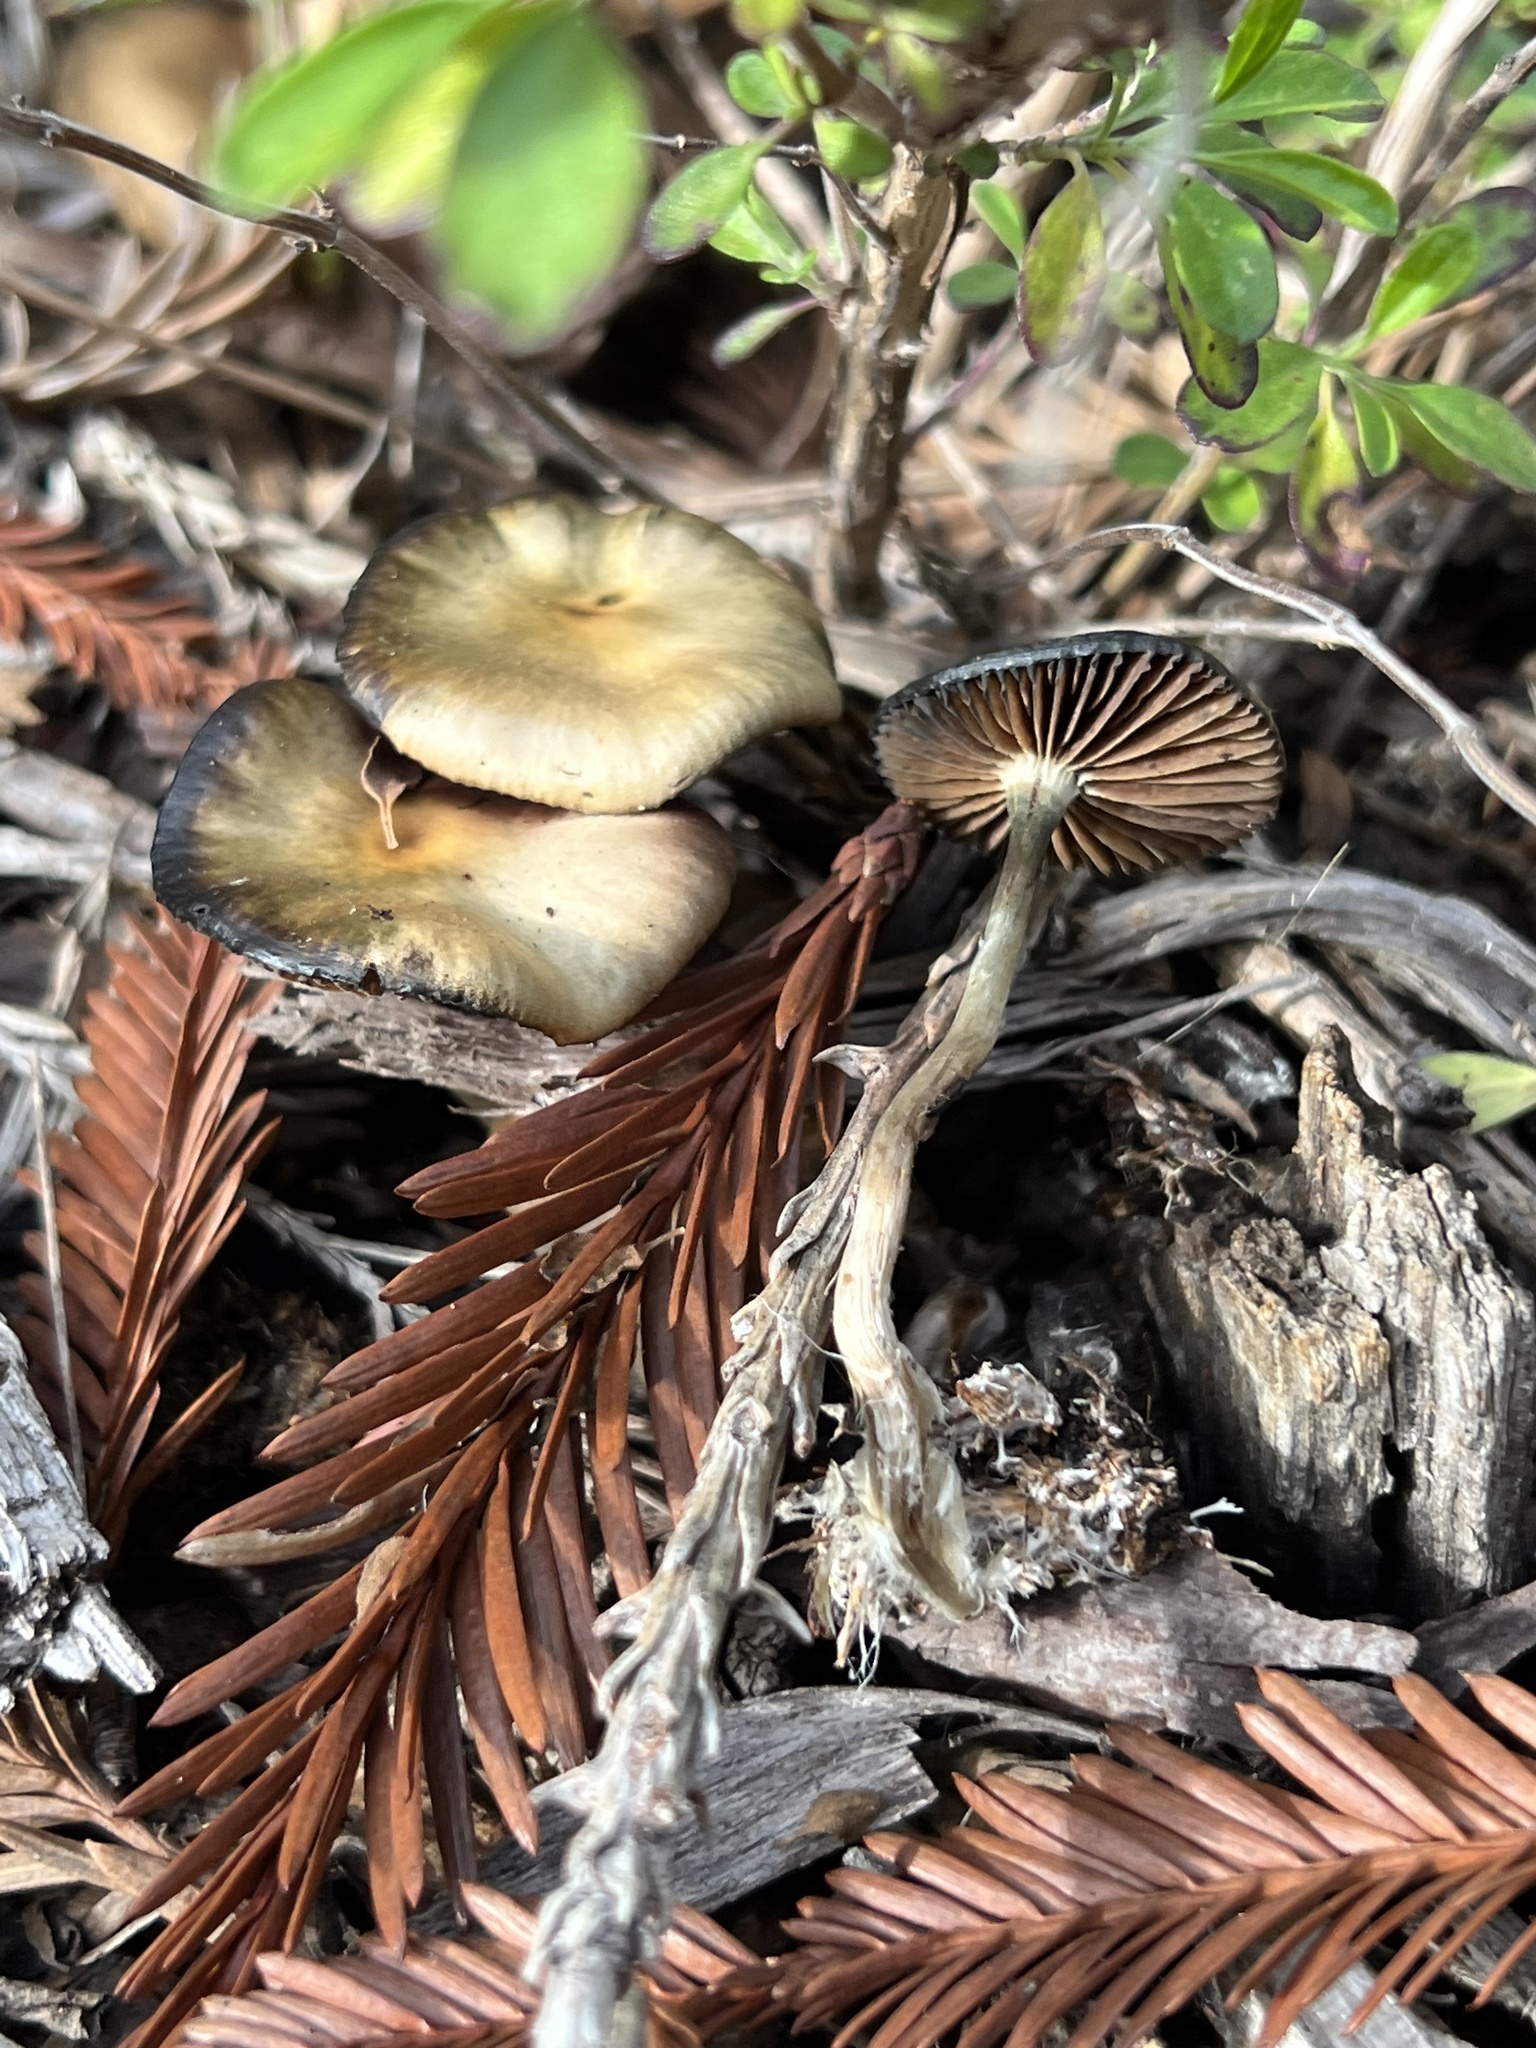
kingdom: Fungi
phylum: Basidiomycota
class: Agaricomycetes
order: Agaricales
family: Hymenogastraceae
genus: Psilocybe
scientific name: Psilocybe cyanescens
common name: Blueleg brownie
